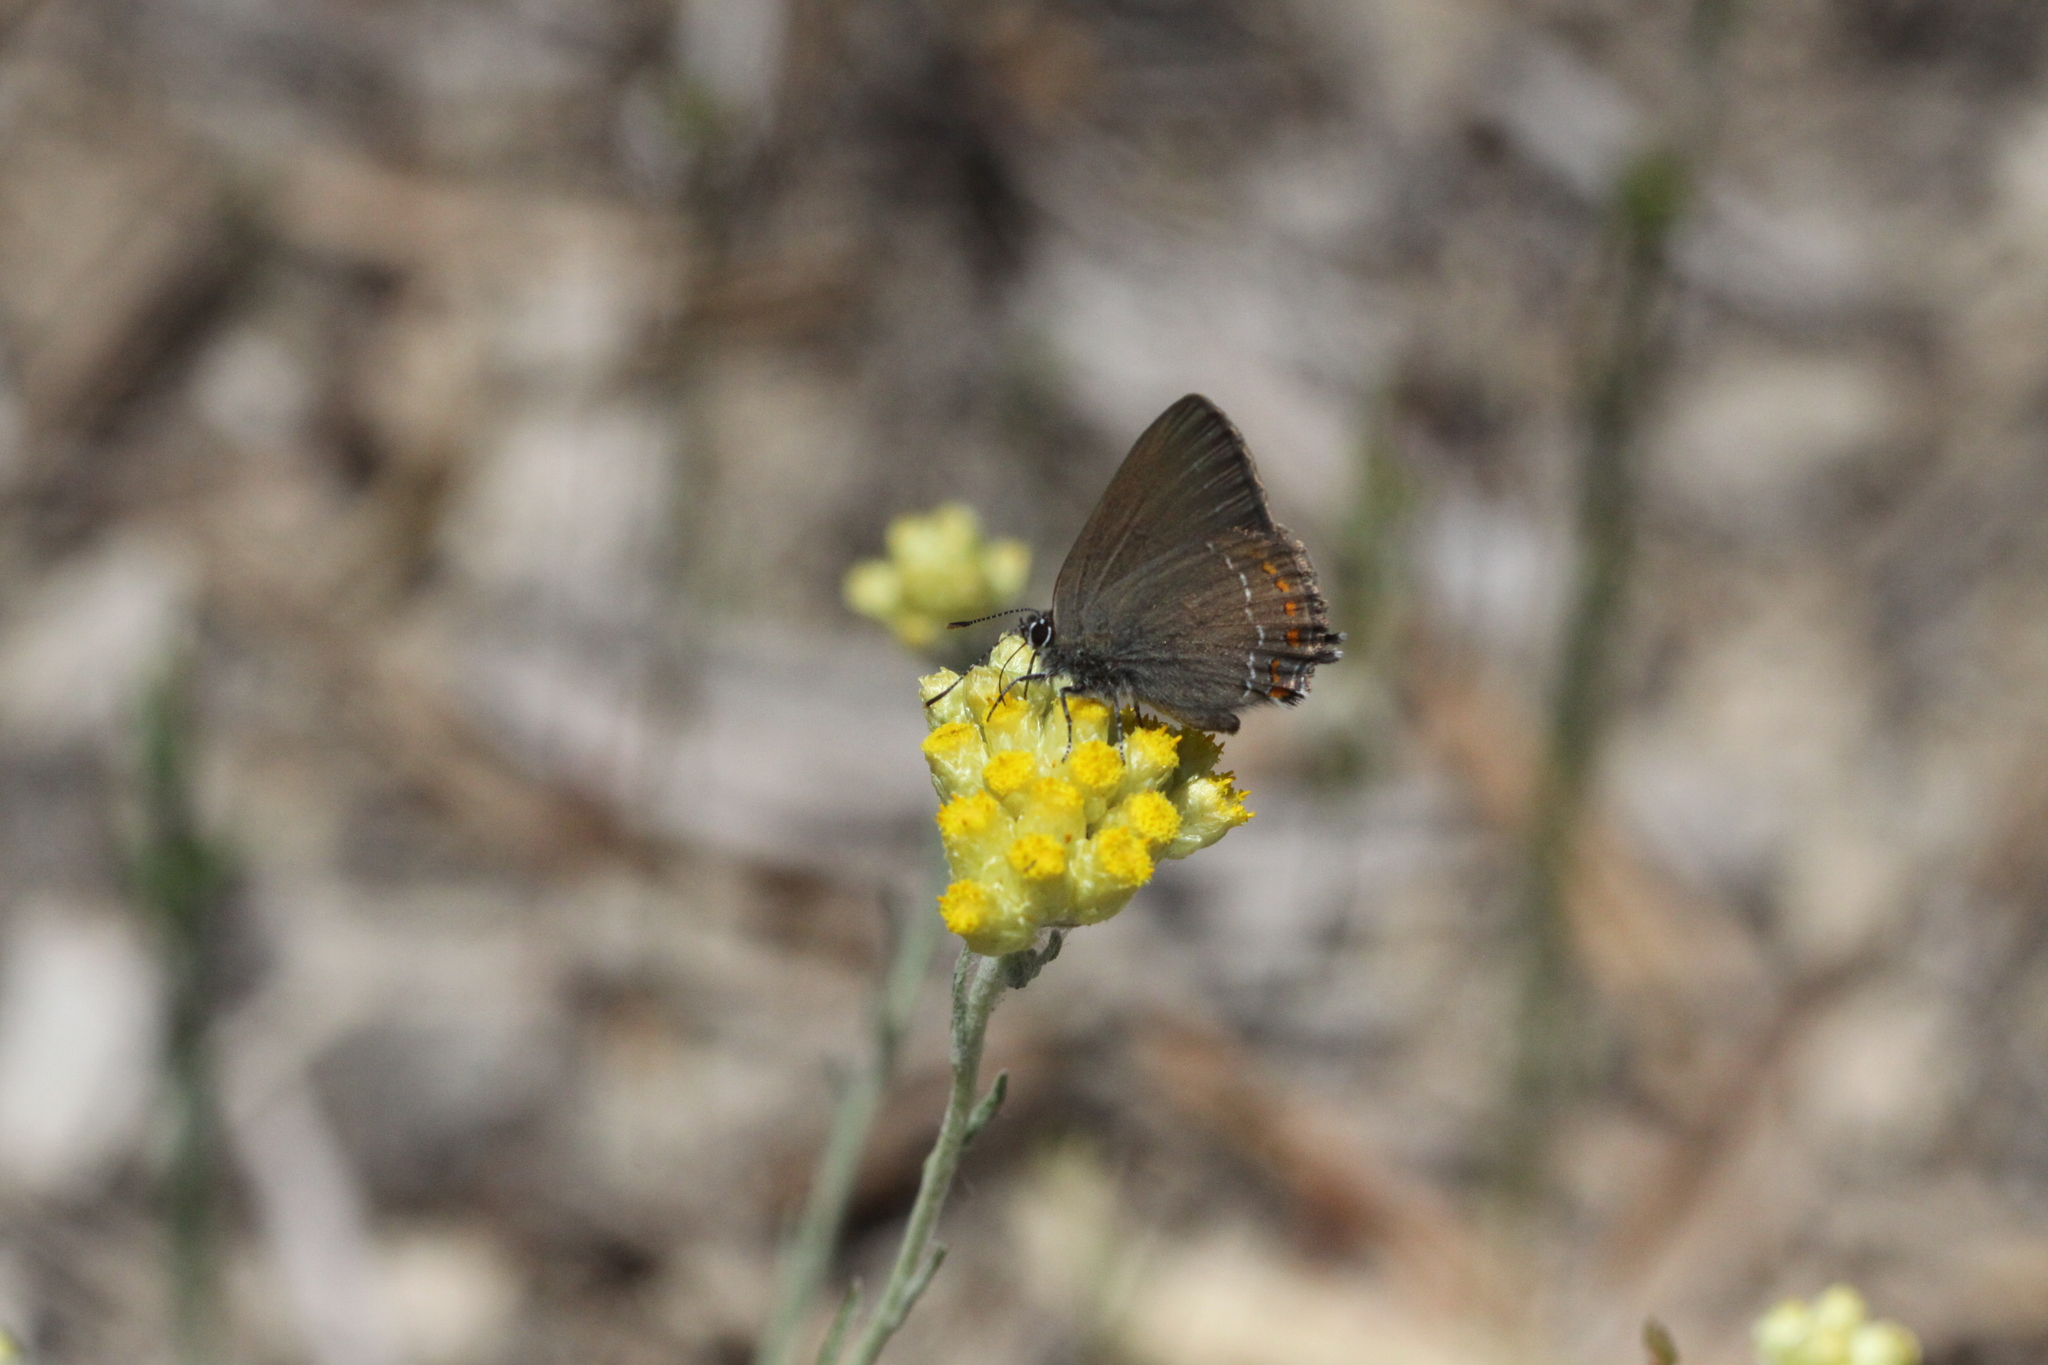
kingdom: Animalia
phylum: Arthropoda
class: Insecta
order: Lepidoptera
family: Lycaenidae
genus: Fixsenia
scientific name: Fixsenia esculi
